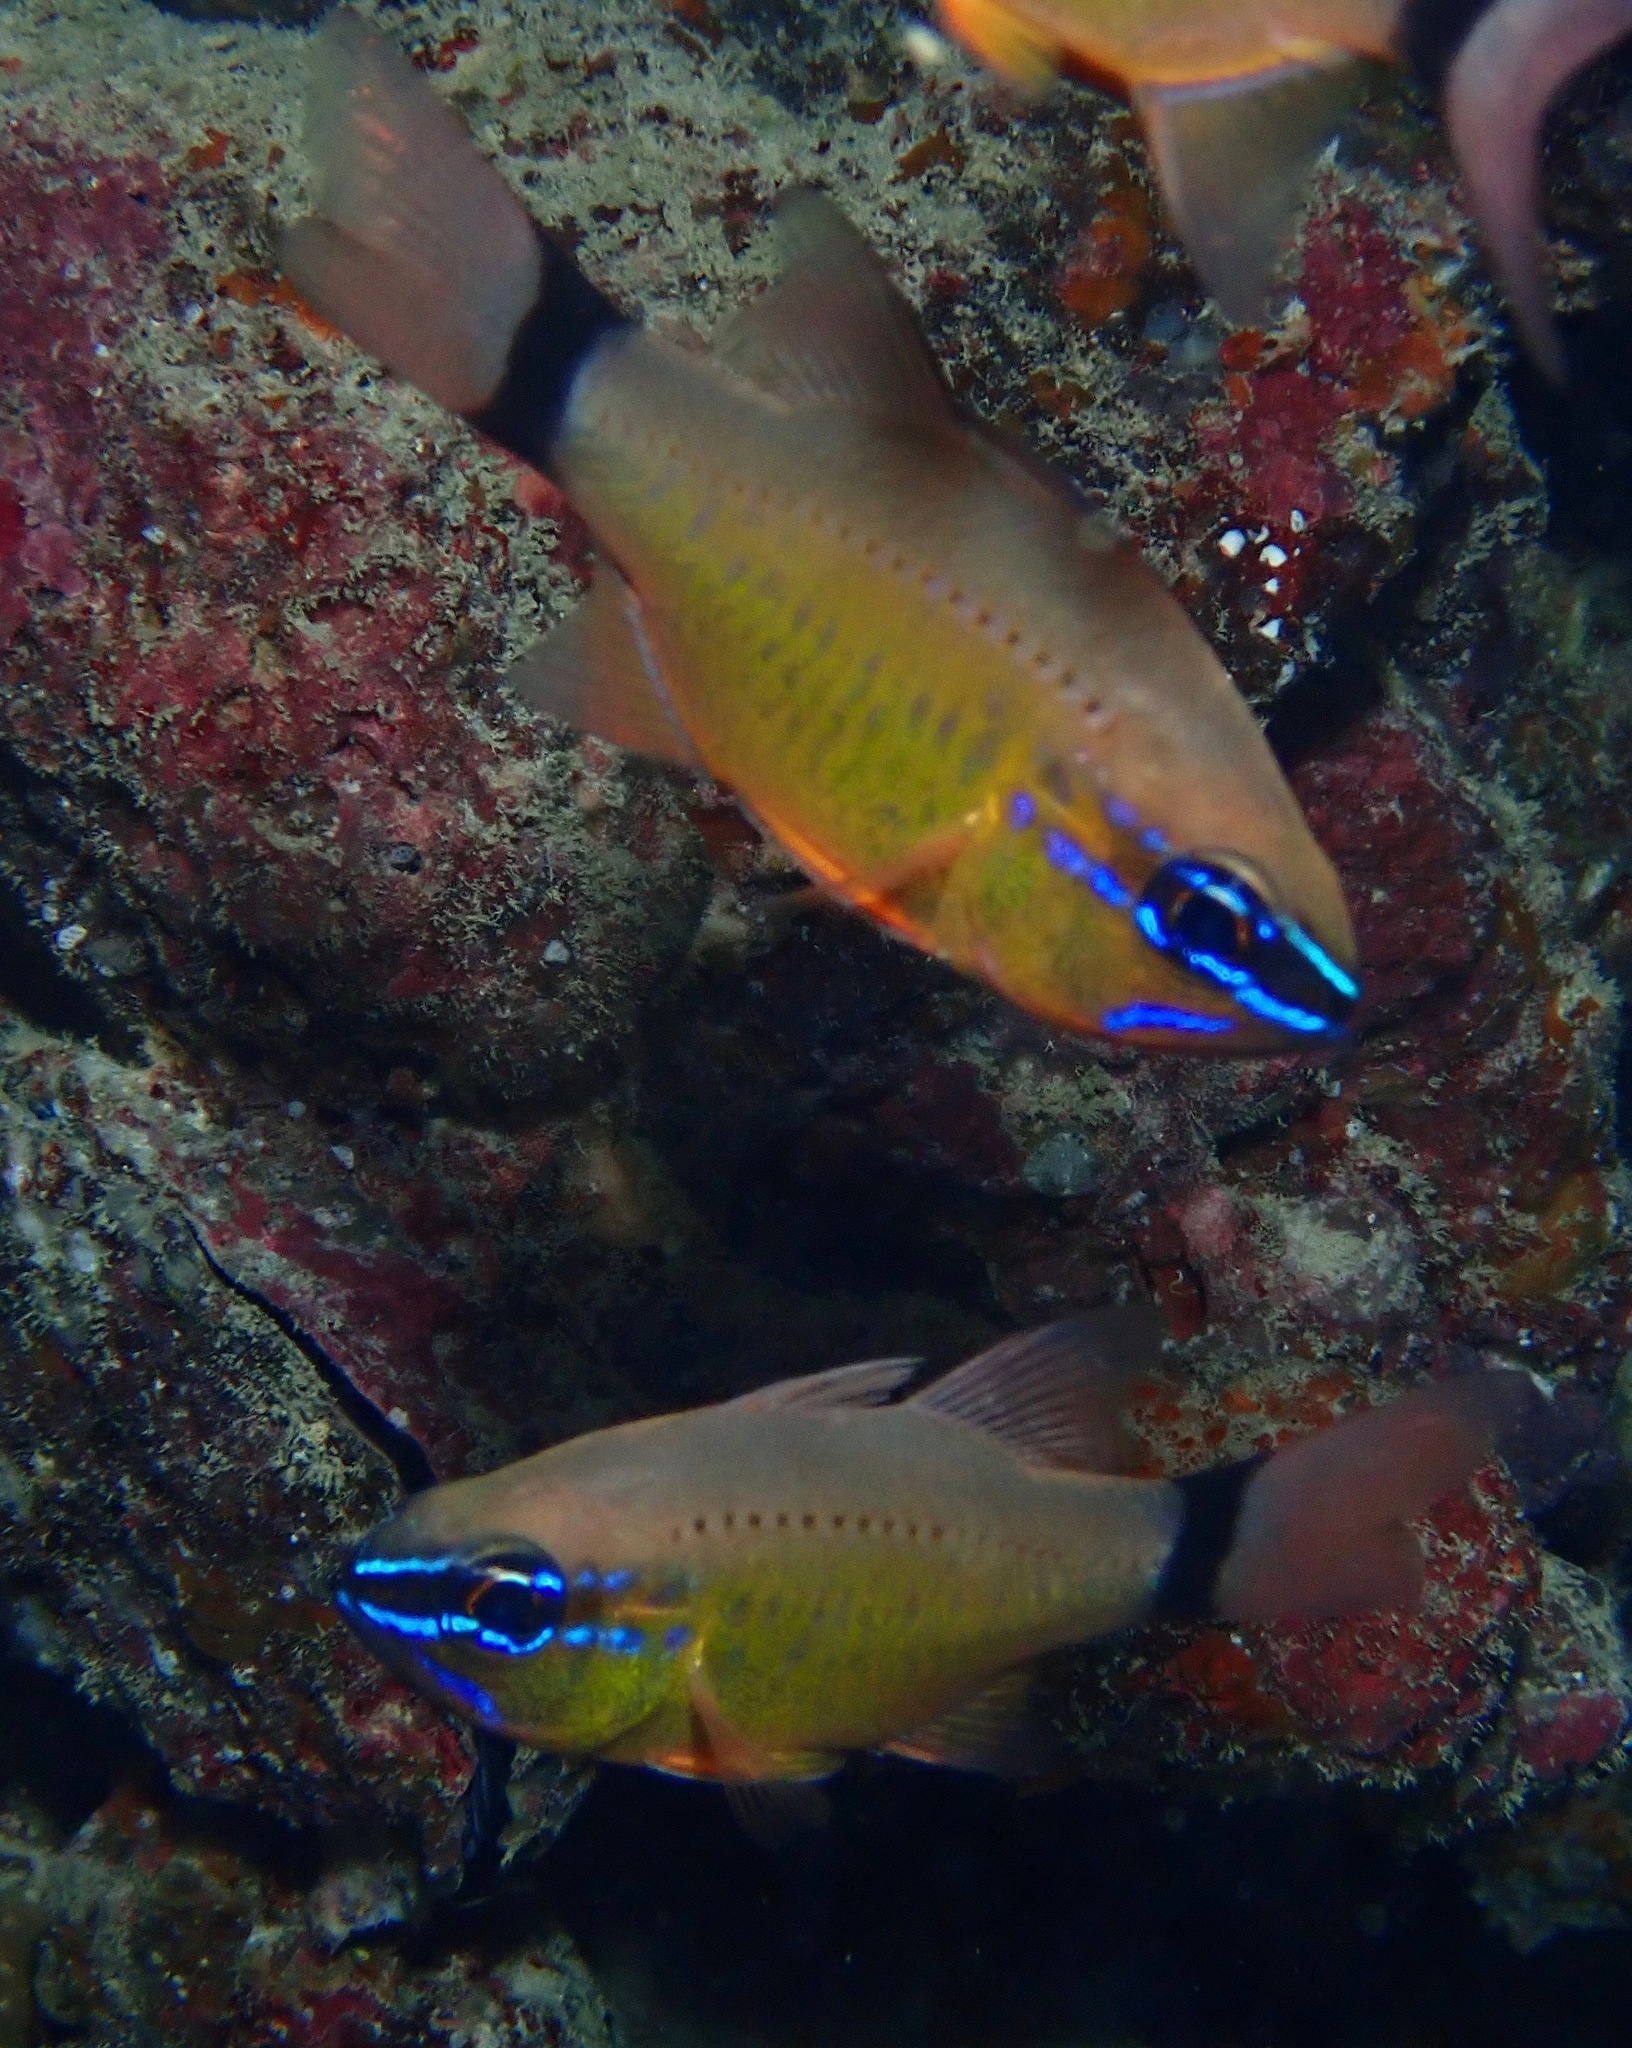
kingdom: Animalia
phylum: Chordata
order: Perciformes
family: Apogonidae
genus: Ostorhinchus
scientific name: Ostorhinchus aureus
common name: Ring-tailed cardinalfish
